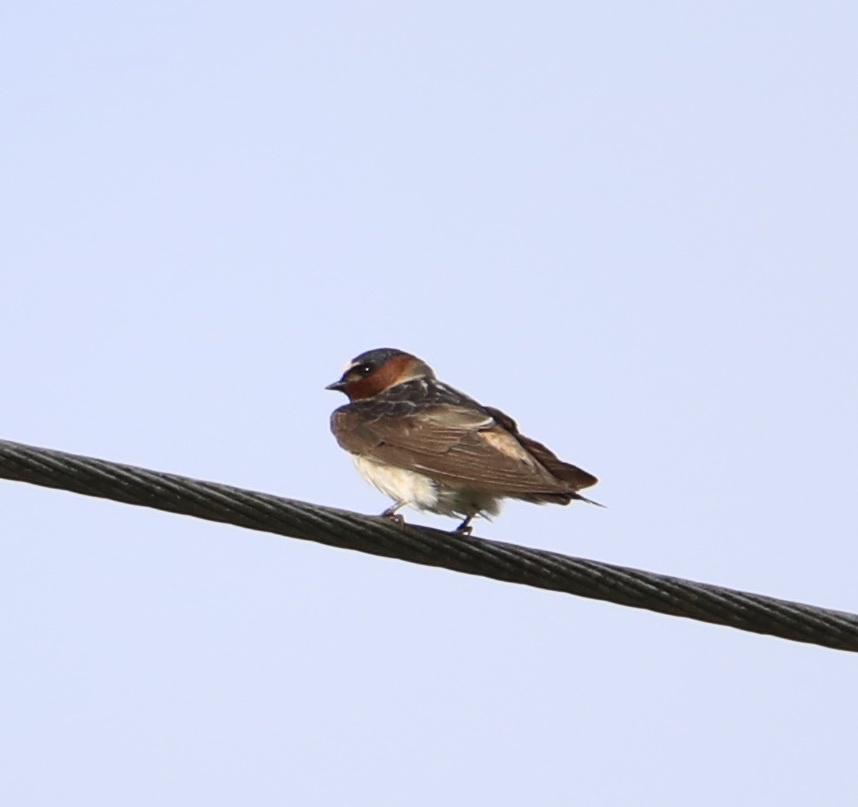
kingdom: Animalia
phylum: Chordata
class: Aves
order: Passeriformes
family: Hirundinidae
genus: Petrochelidon
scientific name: Petrochelidon pyrrhonota
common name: American cliff swallow
